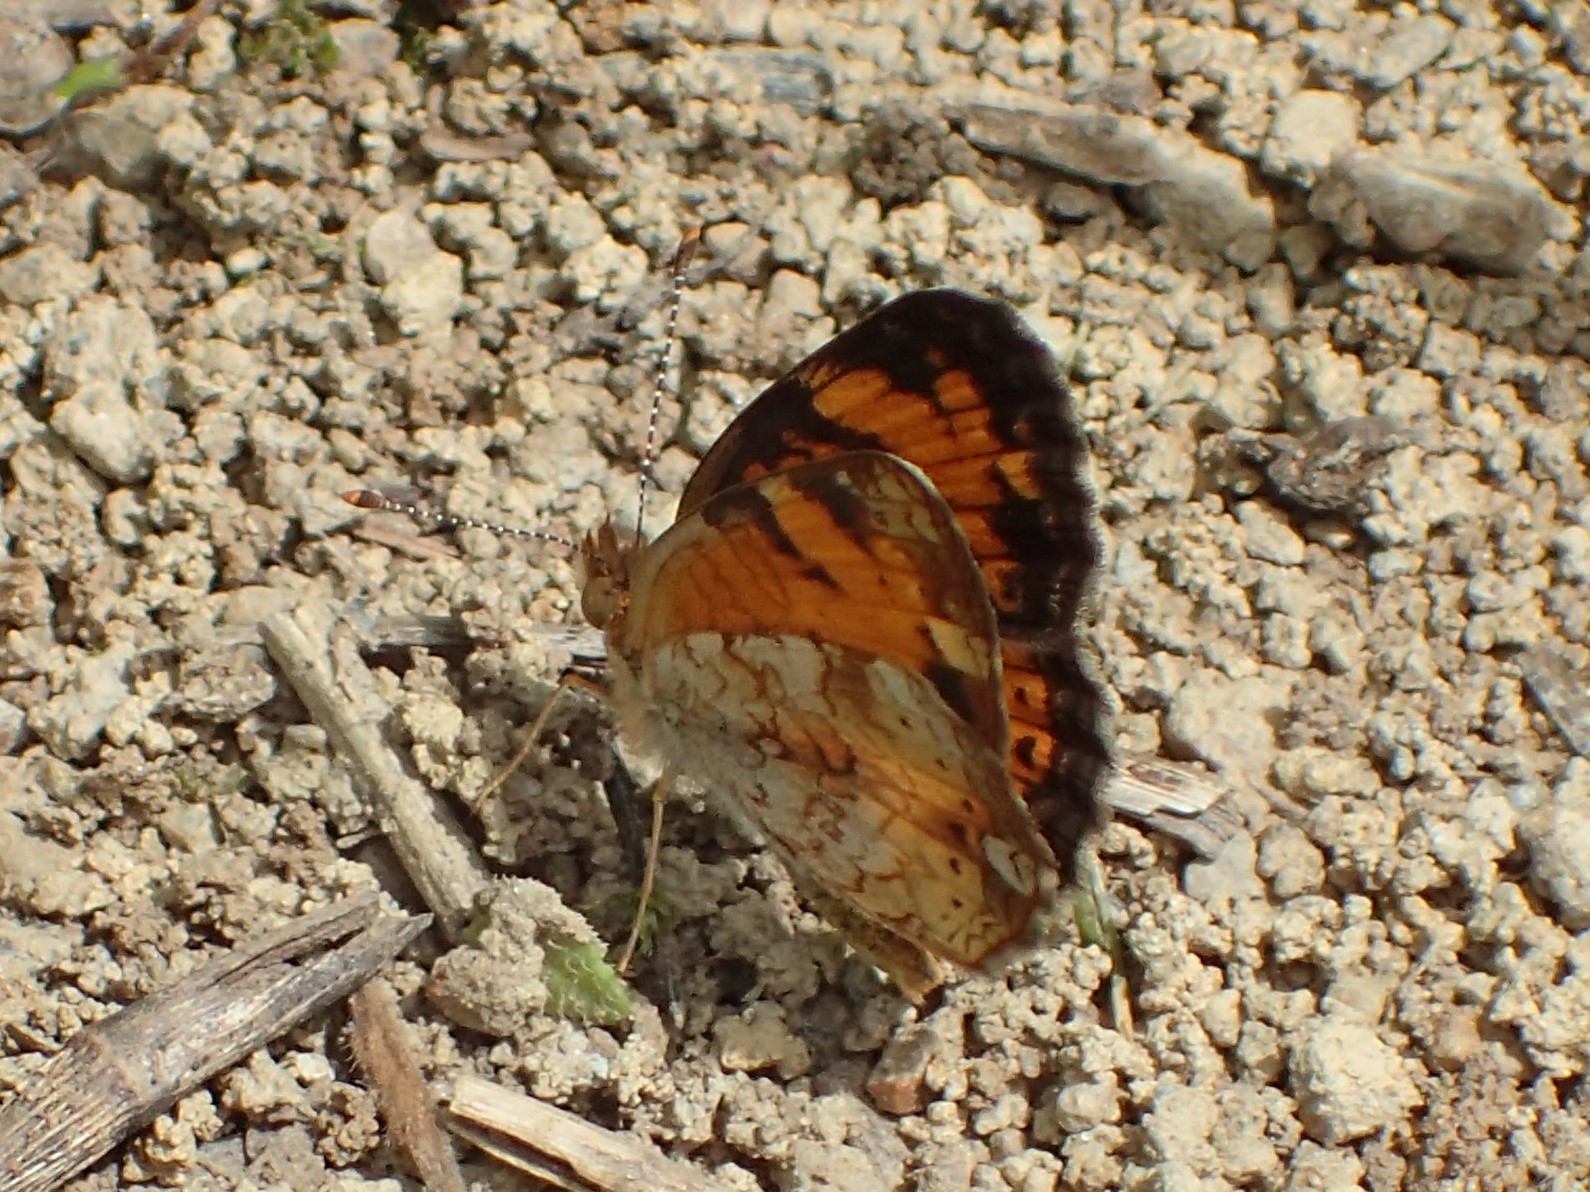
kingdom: Animalia
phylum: Arthropoda
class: Insecta
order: Lepidoptera
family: Nymphalidae
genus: Phyciodes
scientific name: Phyciodes tharos
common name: Pearl crescent
